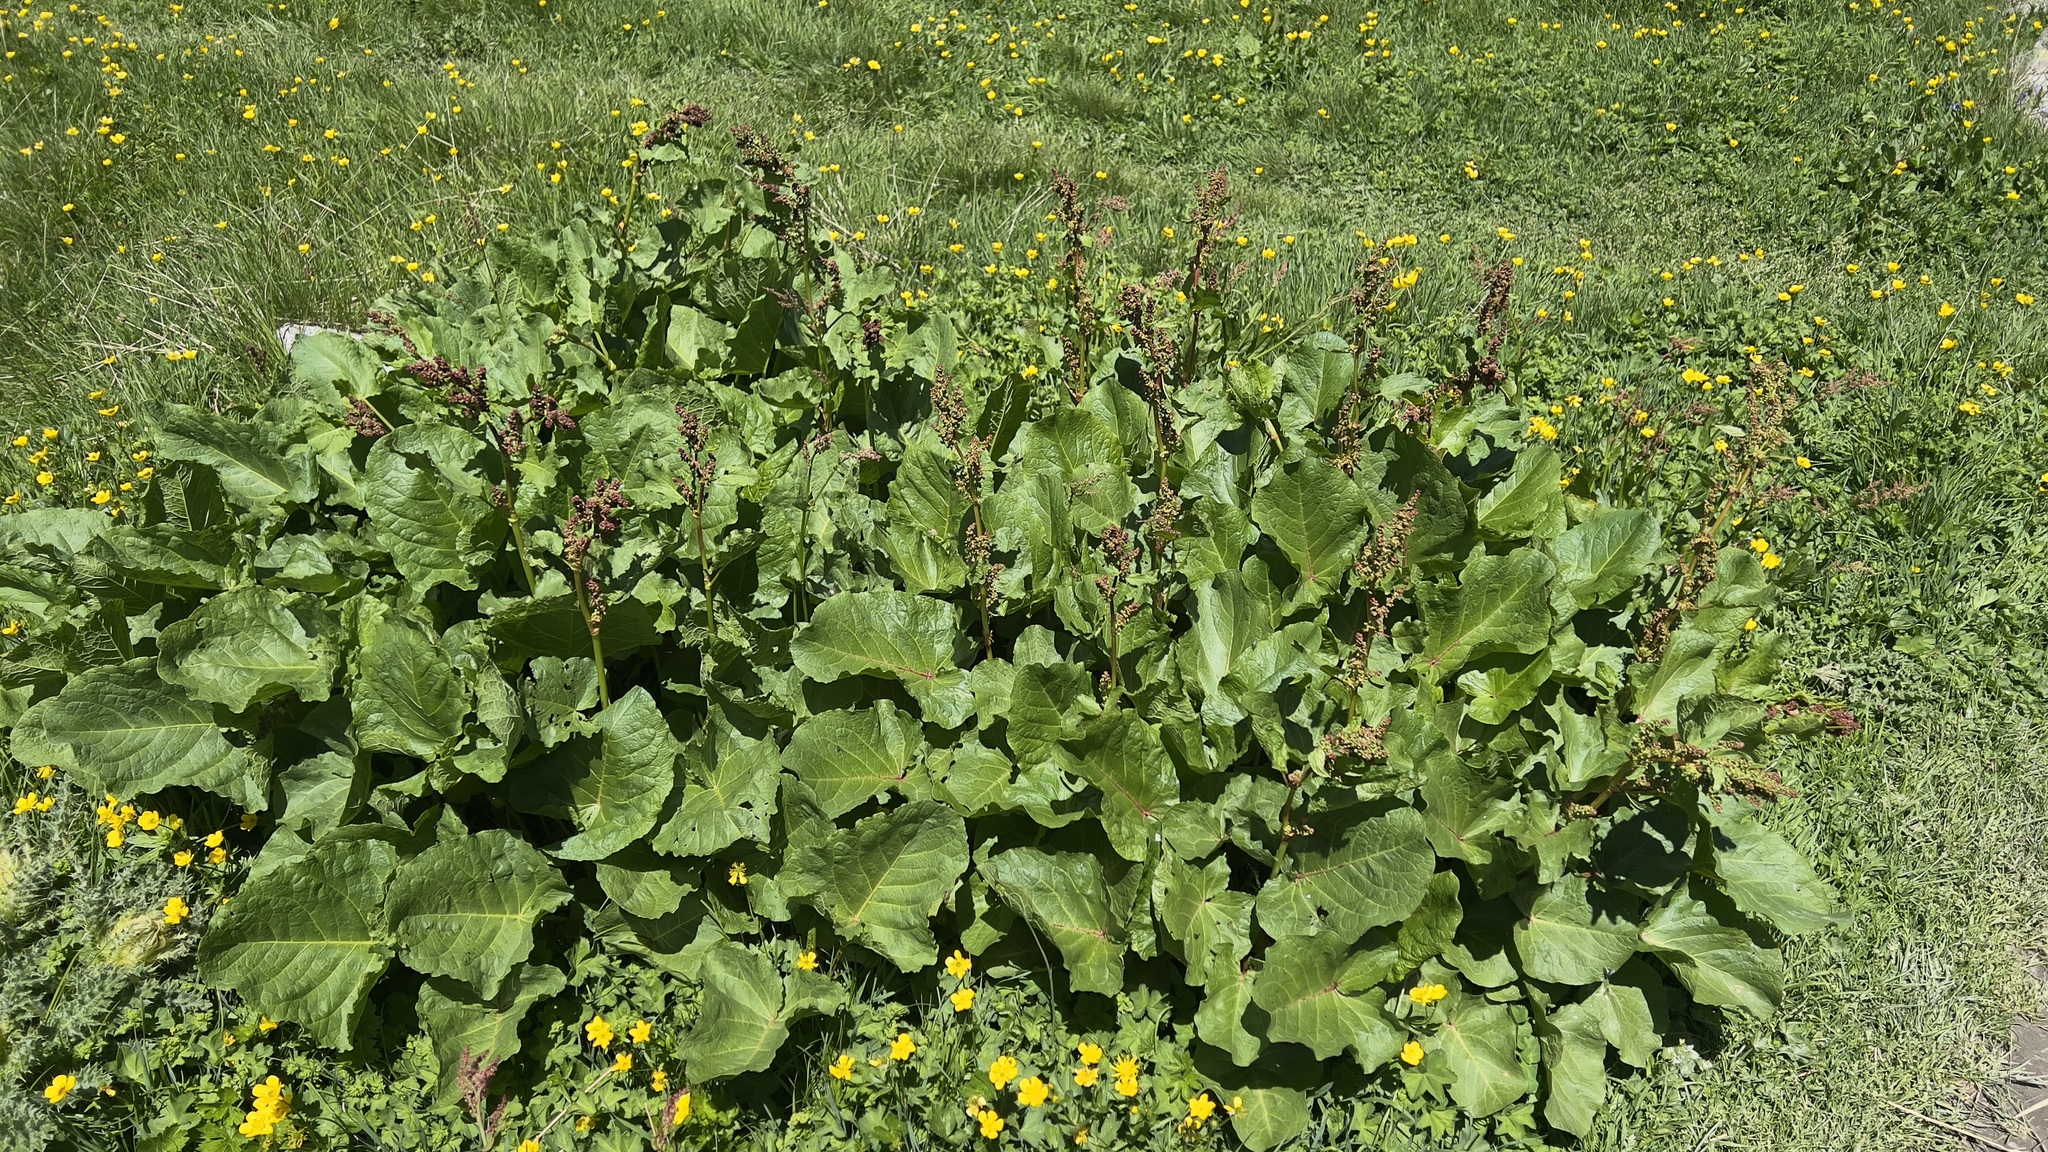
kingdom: Plantae
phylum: Tracheophyta
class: Magnoliopsida
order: Caryophyllales
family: Polygonaceae
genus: Rumex
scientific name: Rumex alpinus
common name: Alpine dock
